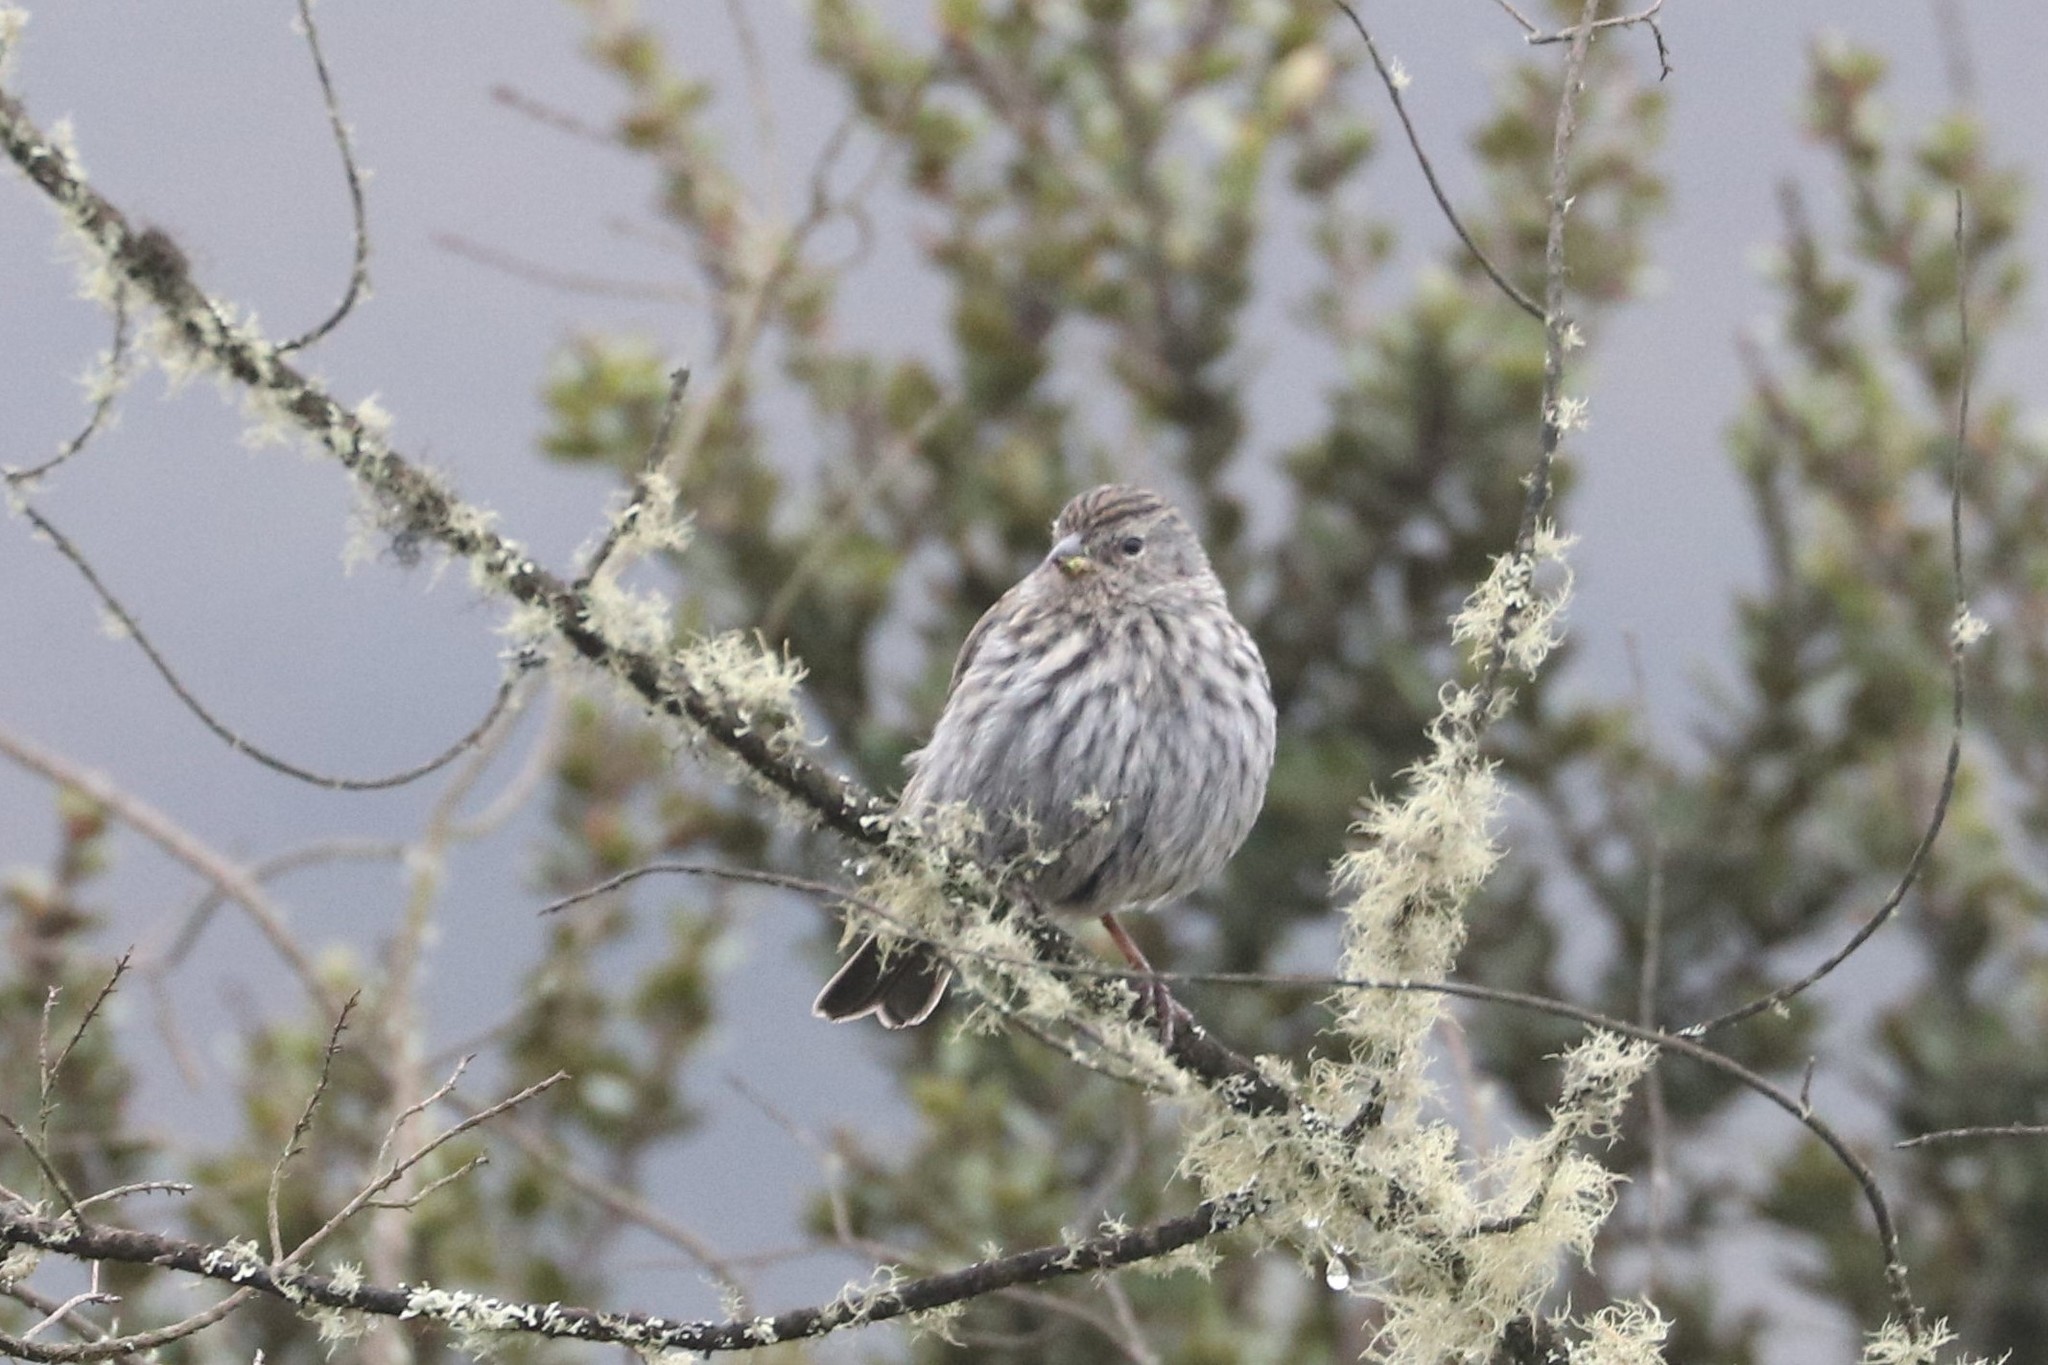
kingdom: Animalia
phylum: Chordata
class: Aves
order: Passeriformes
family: Thraupidae
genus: Geospizopsis
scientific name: Geospizopsis unicolor
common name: Plumbeous sierra-finch
